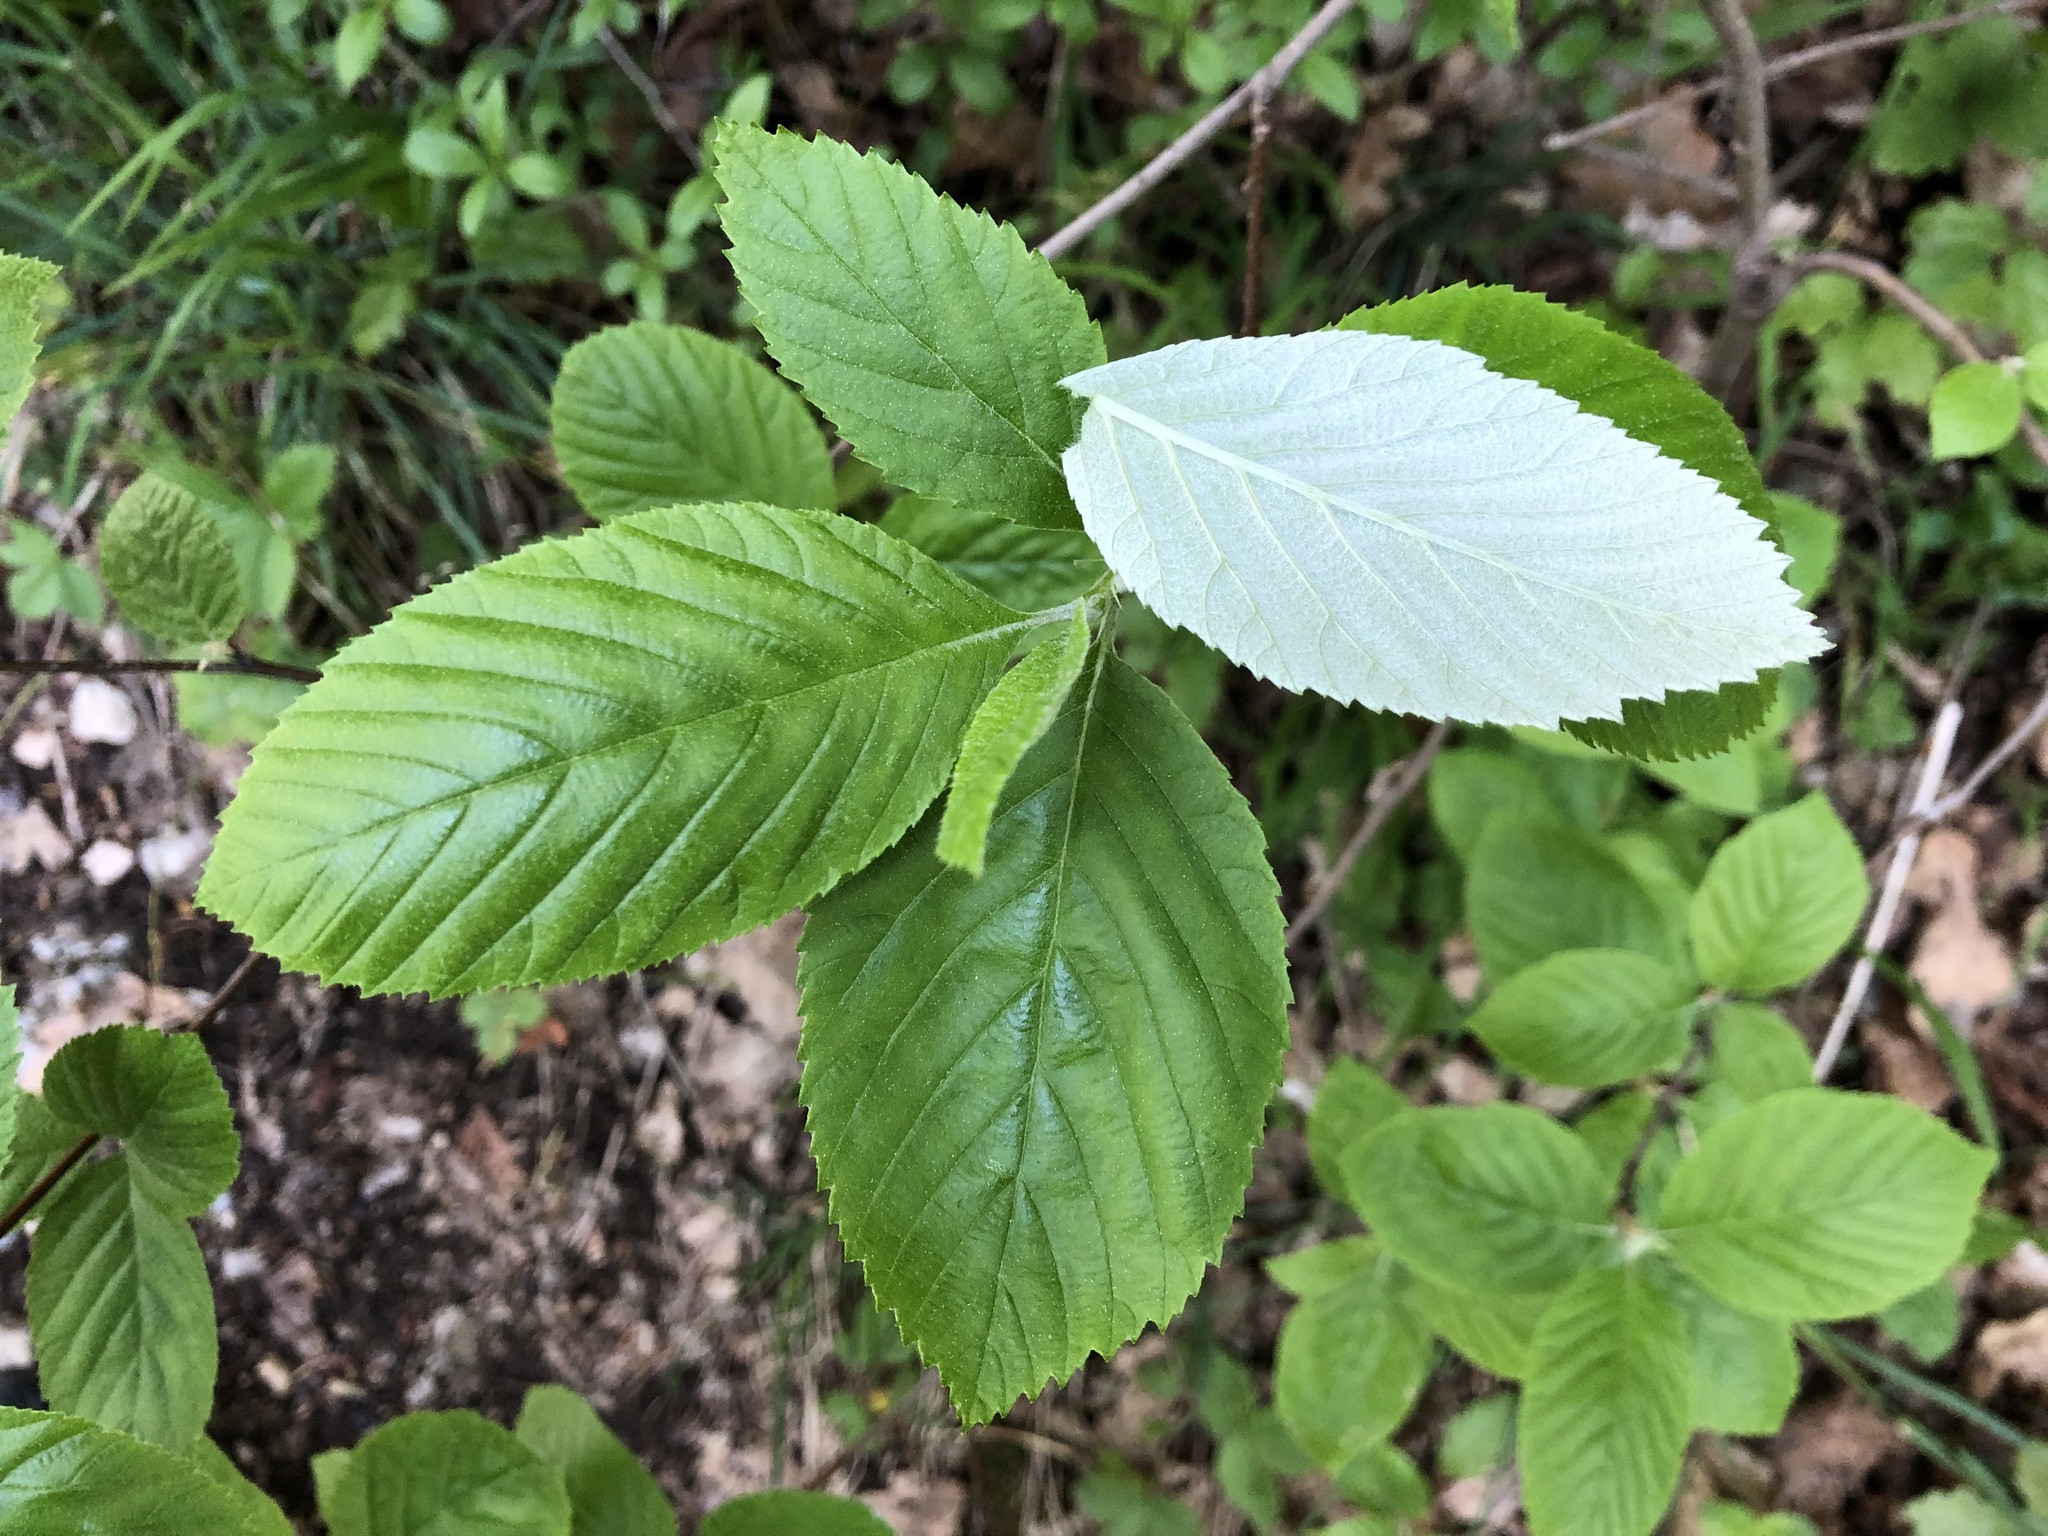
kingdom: Plantae
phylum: Tracheophyta
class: Magnoliopsida
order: Rosales
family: Rosaceae
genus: Aria
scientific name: Aria edulis
